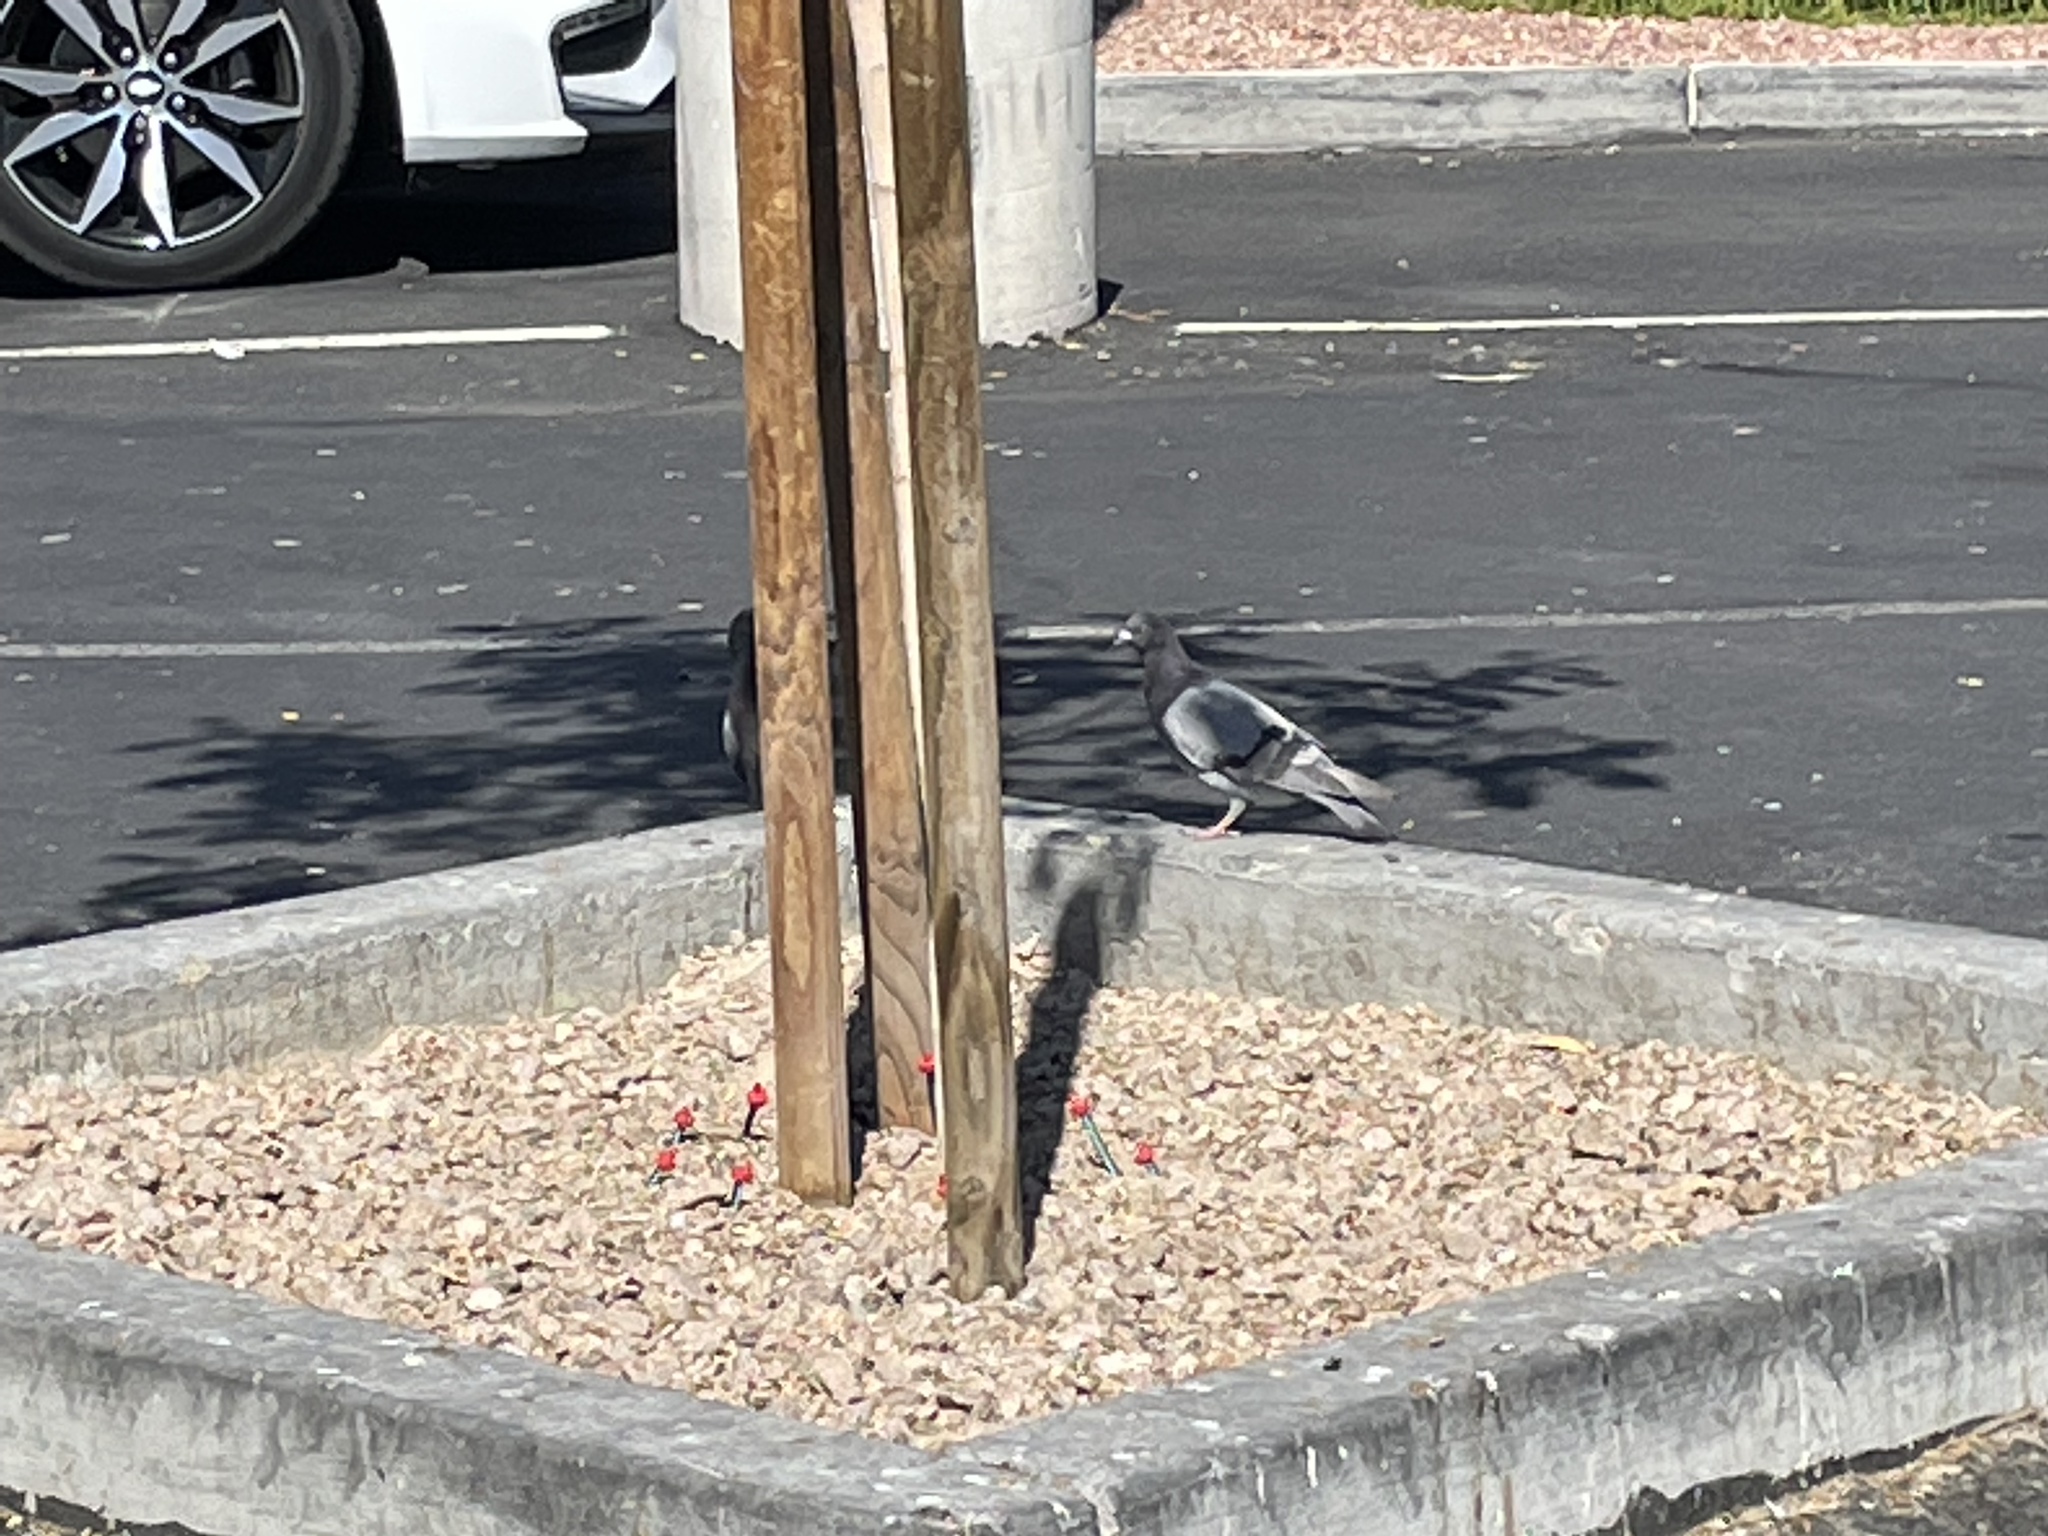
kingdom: Animalia
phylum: Chordata
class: Aves
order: Columbiformes
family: Columbidae
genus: Columba
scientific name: Columba livia
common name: Rock pigeon
